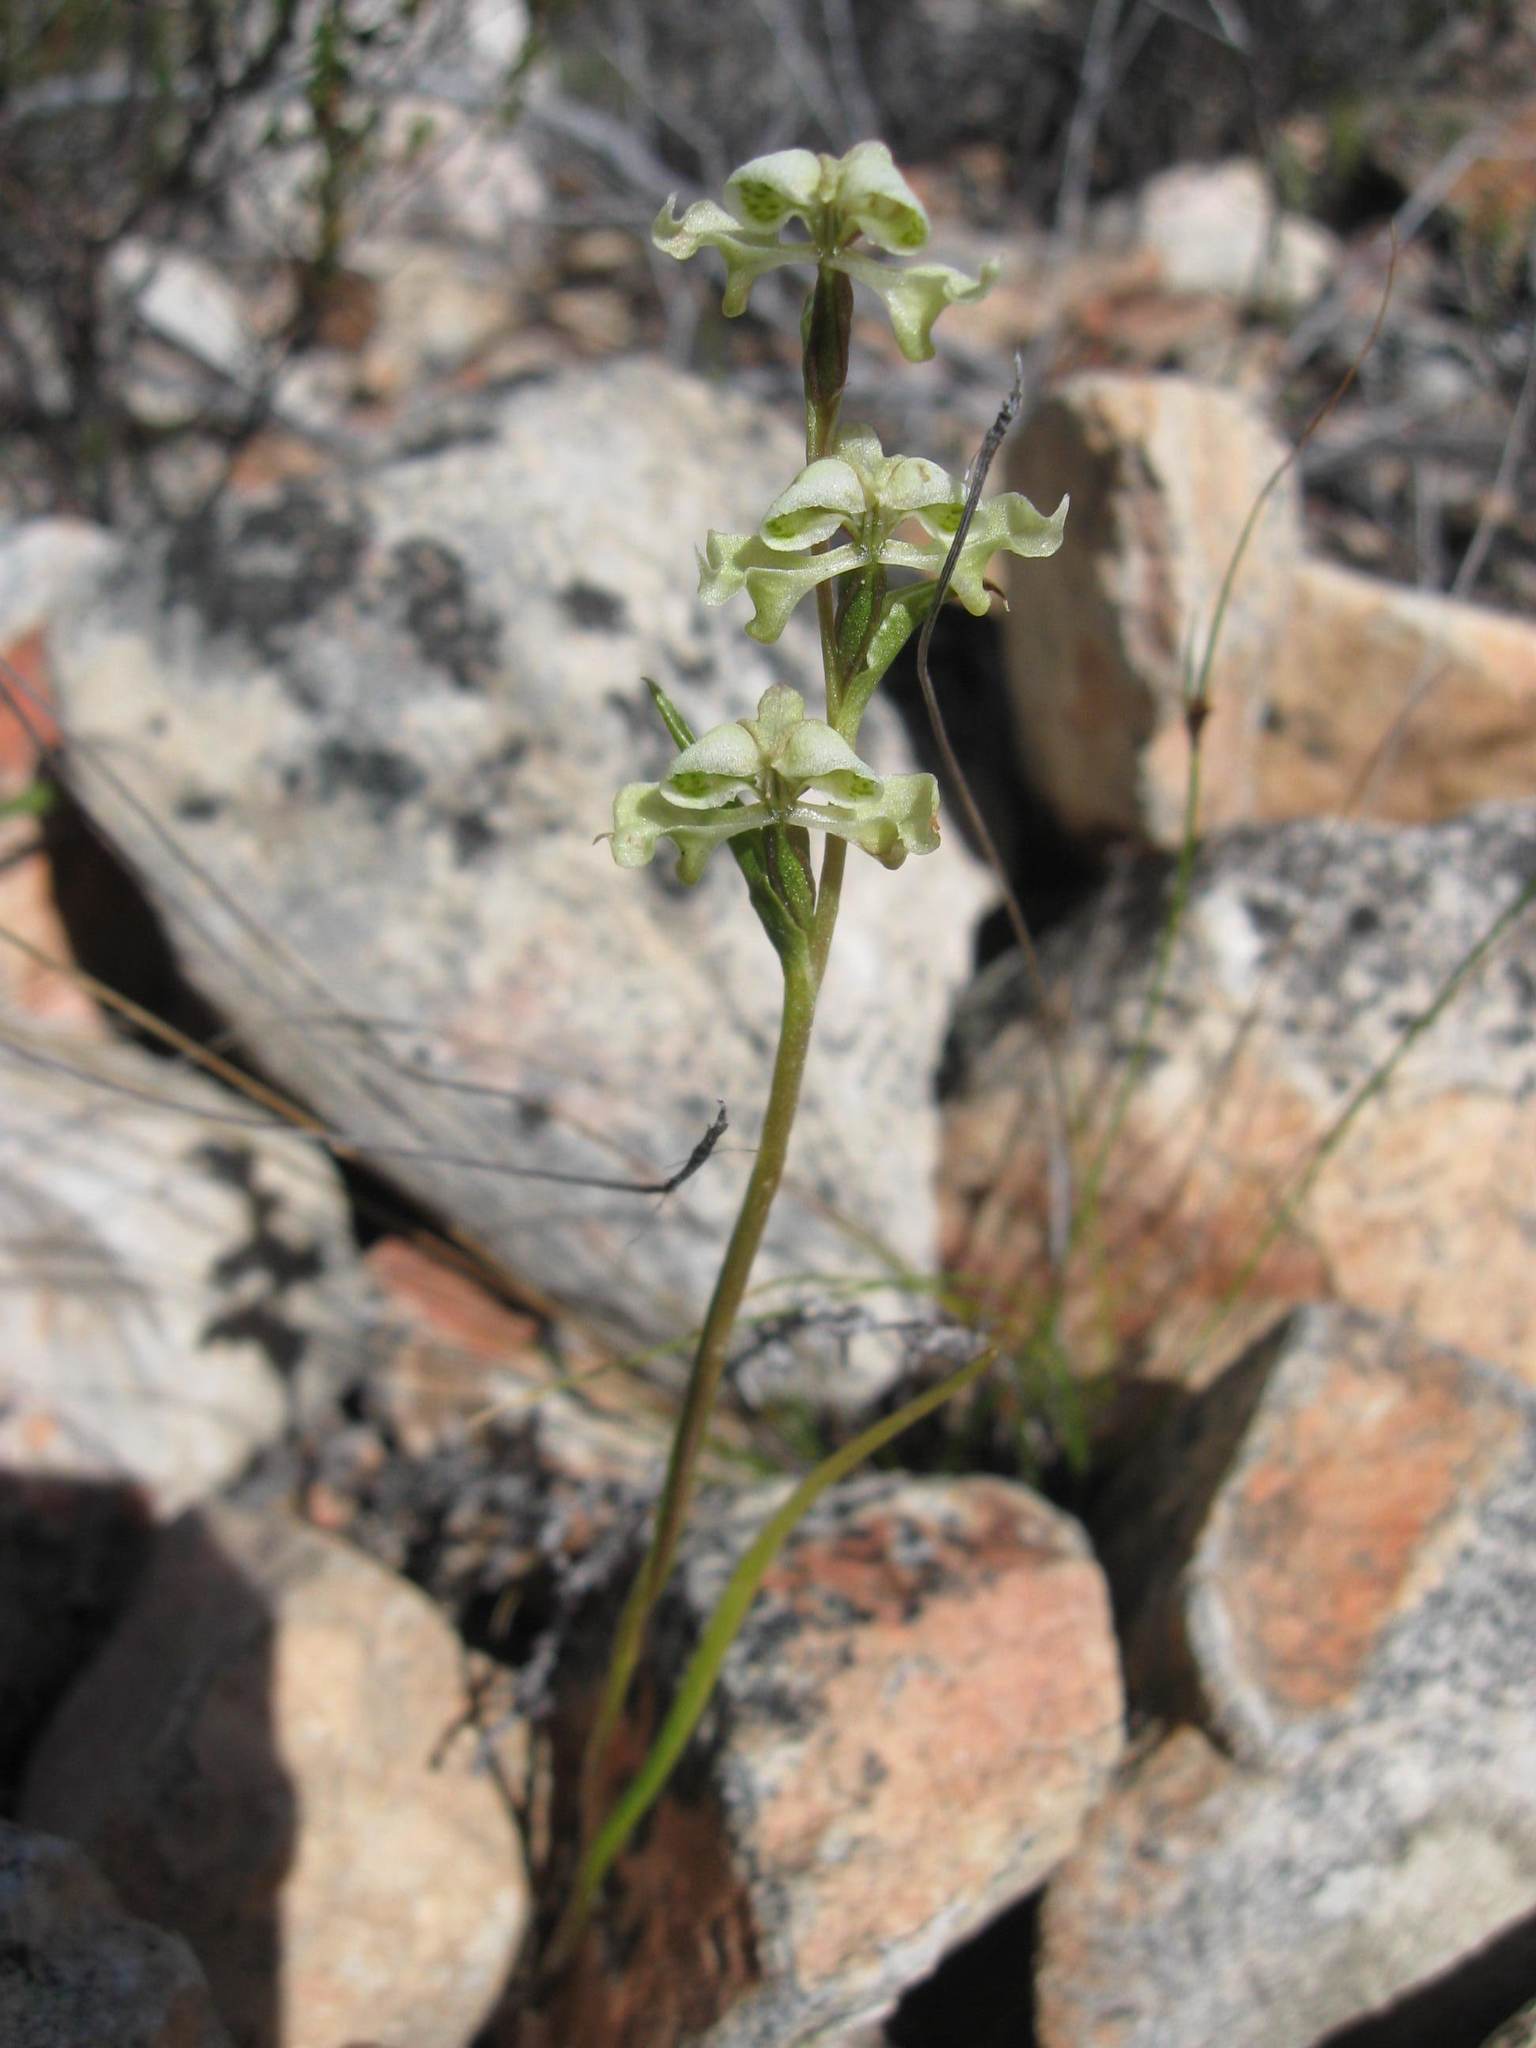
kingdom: Plantae
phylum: Tracheophyta
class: Liliopsida
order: Asparagales
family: Orchidaceae
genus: Disperis
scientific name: Disperis circumflexa
